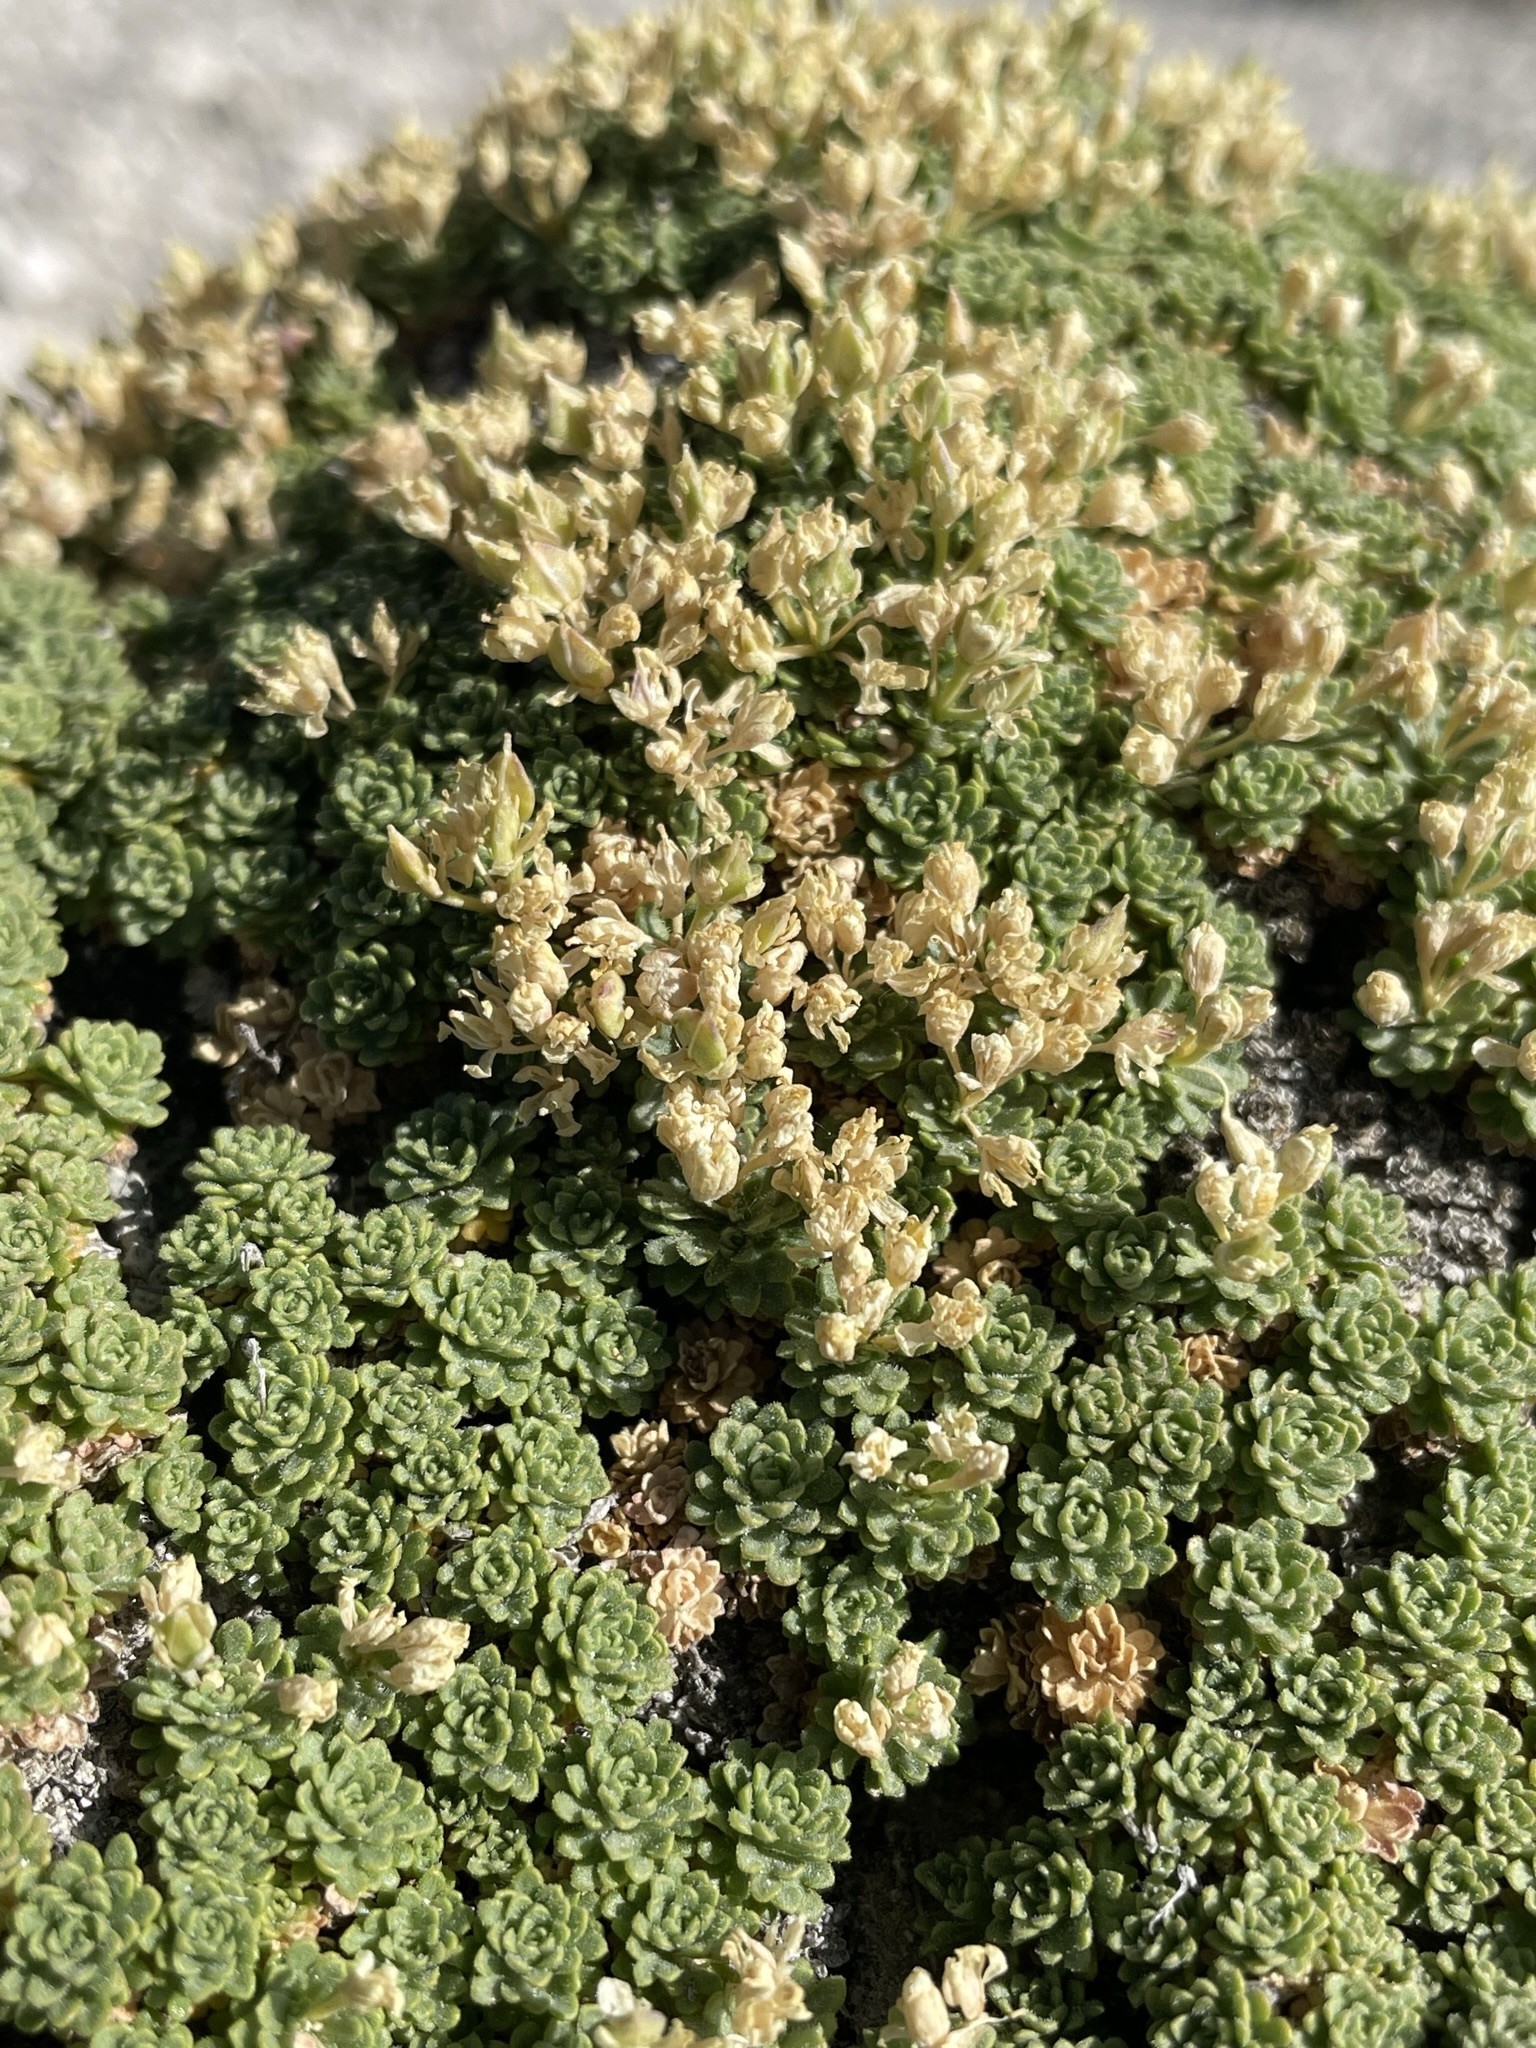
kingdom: Plantae
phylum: Tracheophyta
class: Magnoliopsida
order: Brassicales
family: Brassicaceae
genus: Lepidium
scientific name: Lepidium nanum
